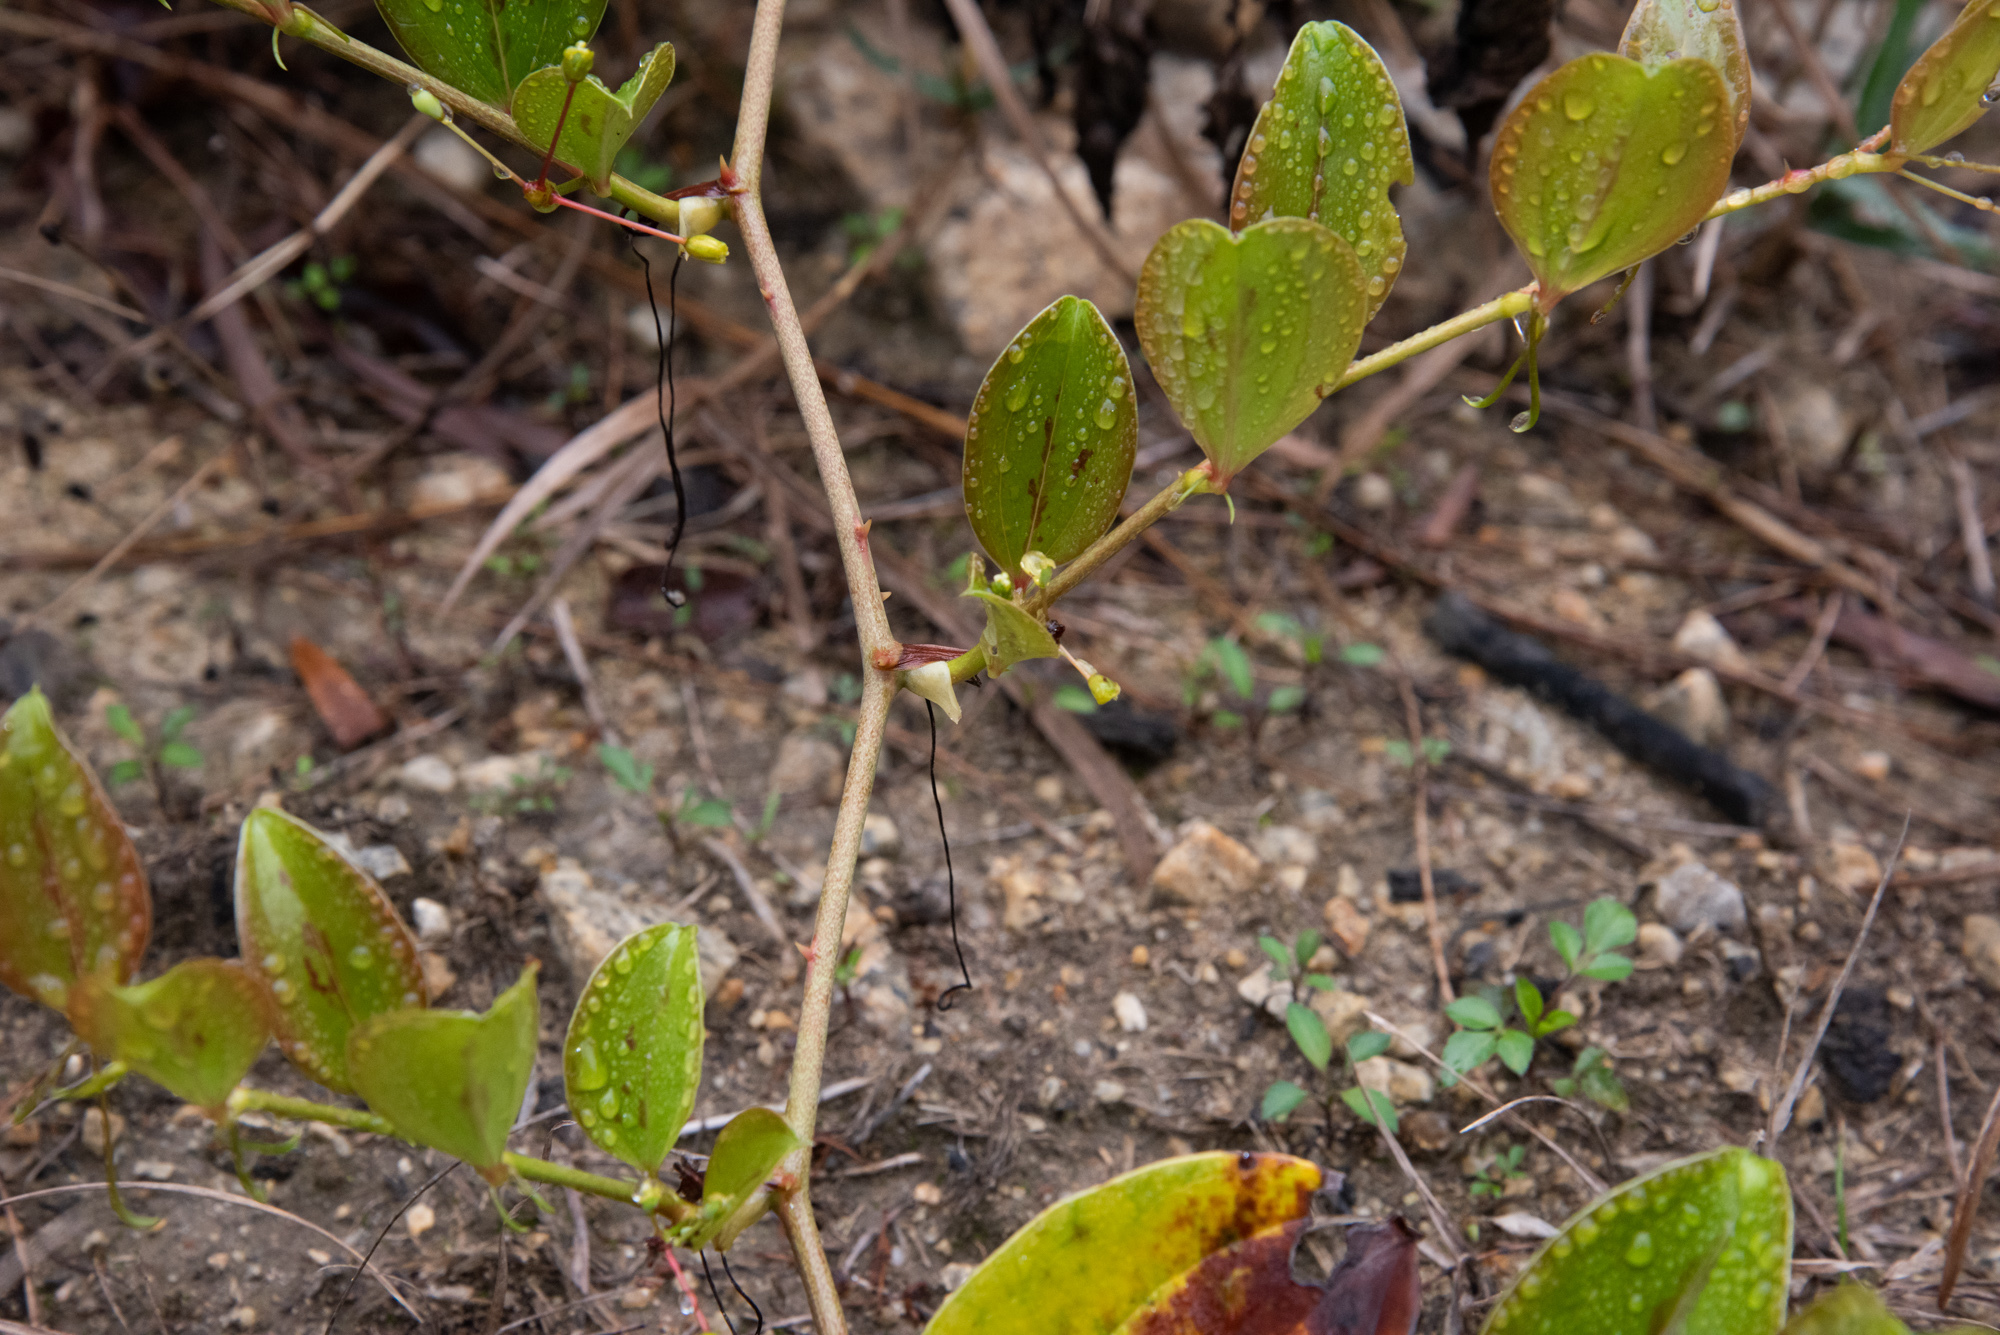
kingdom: Plantae
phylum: Tracheophyta
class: Liliopsida
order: Liliales
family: Smilacaceae
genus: Smilax
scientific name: Smilax china
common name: Chinaroot
